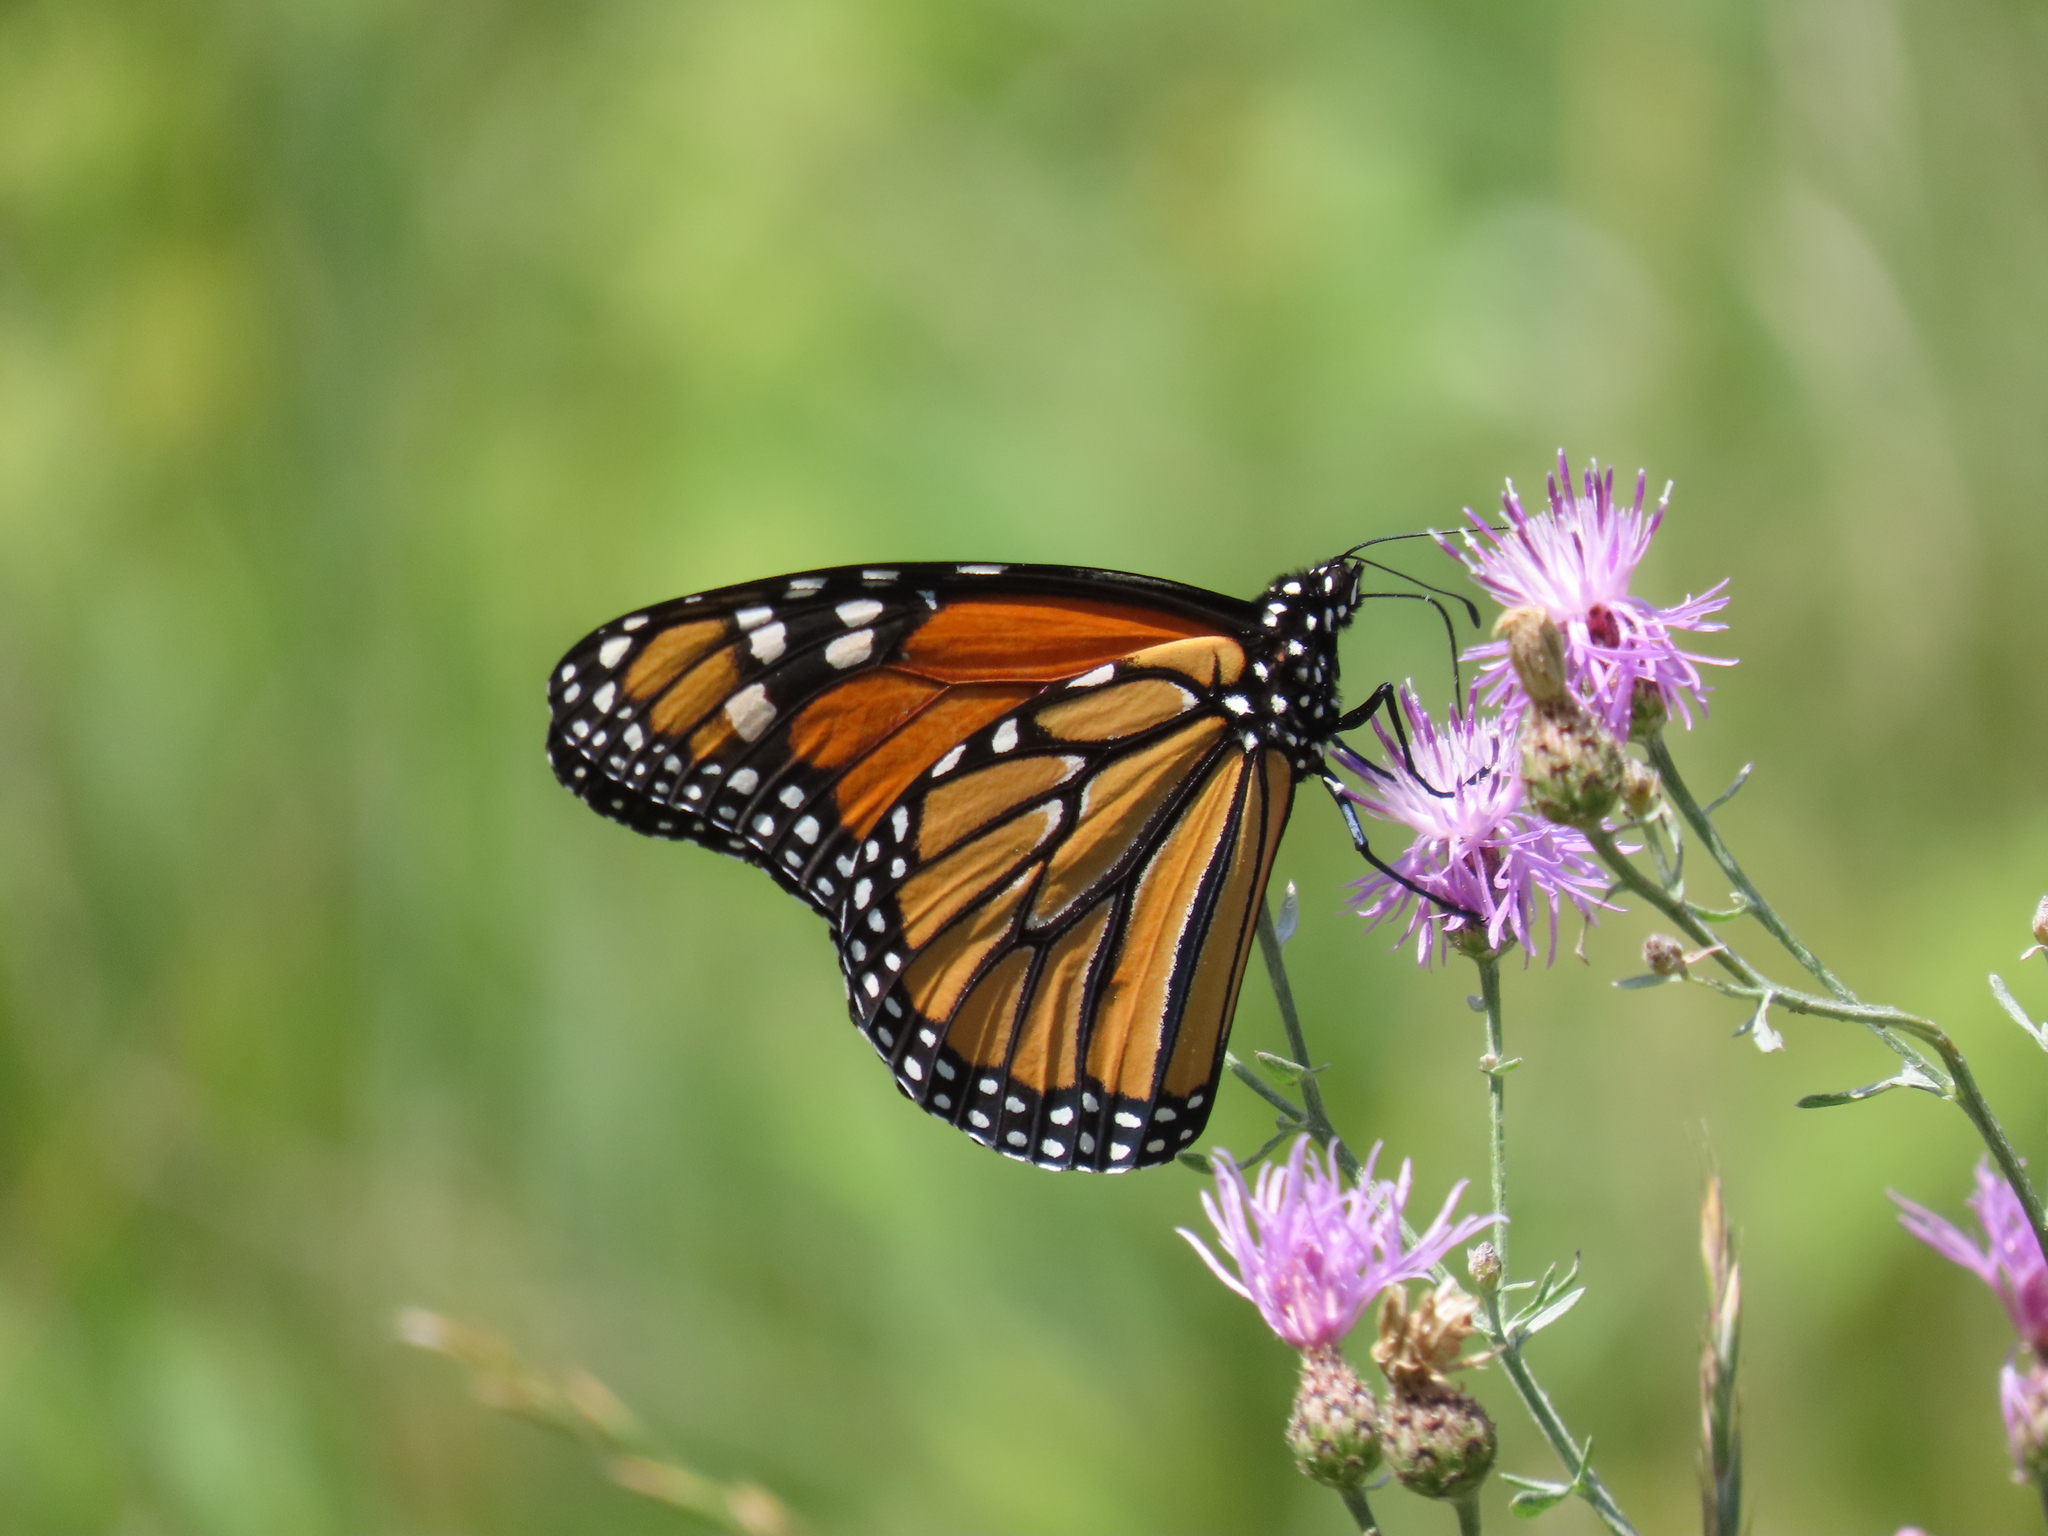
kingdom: Animalia
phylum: Arthropoda
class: Insecta
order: Lepidoptera
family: Nymphalidae
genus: Danaus
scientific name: Danaus plexippus
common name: Monarch
